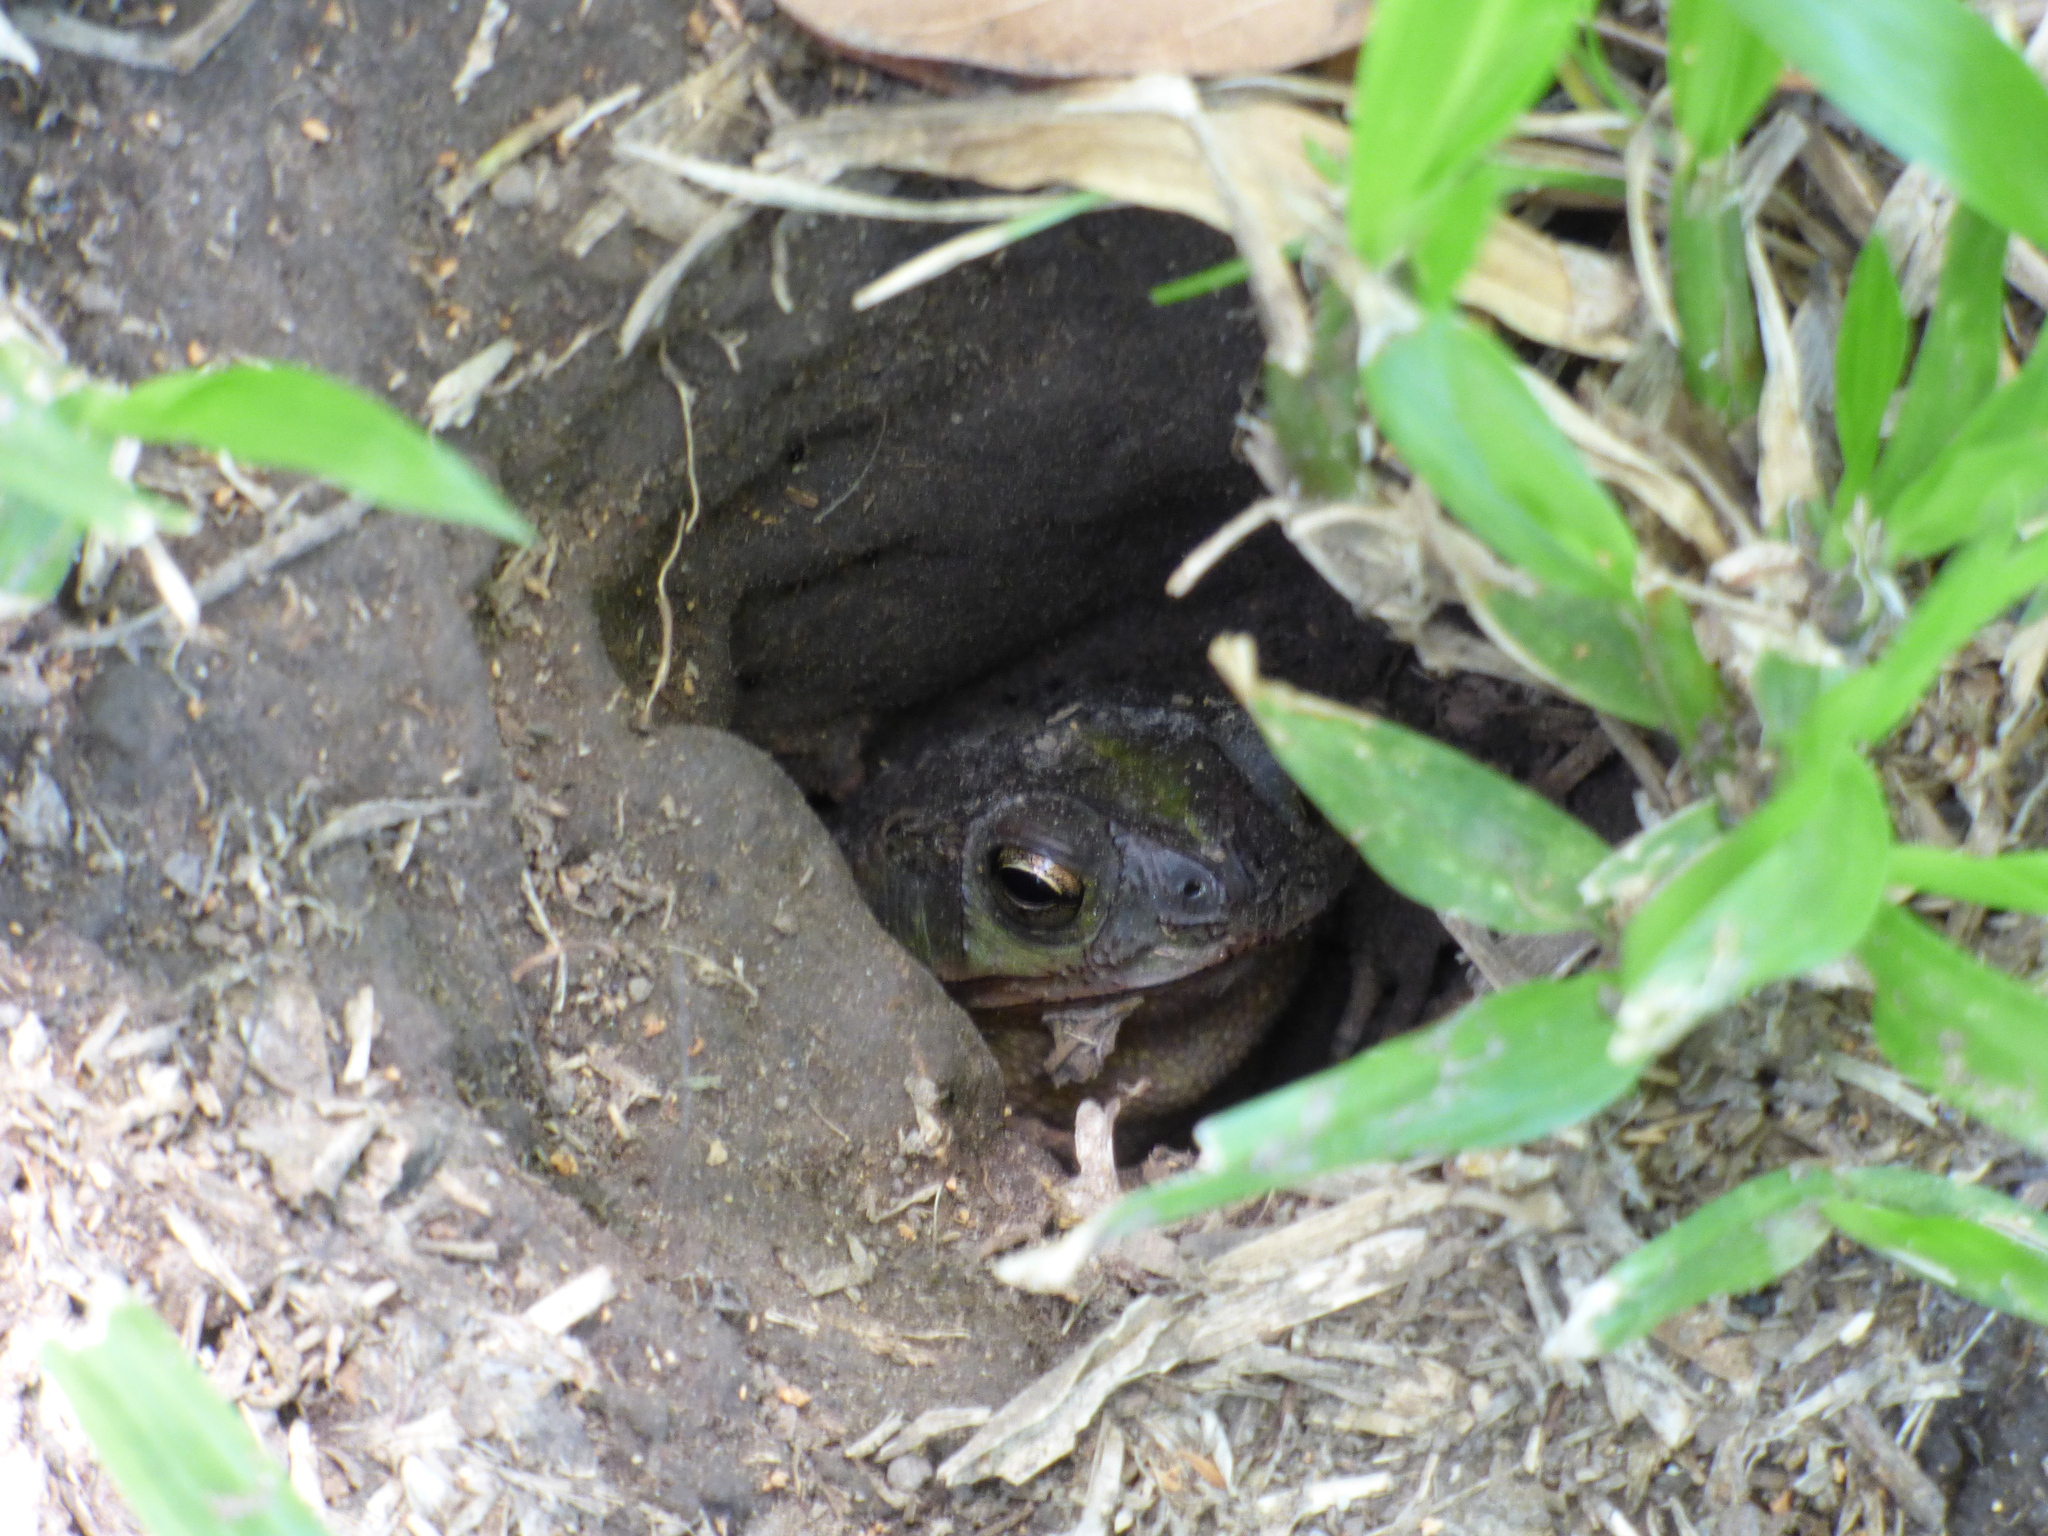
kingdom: Animalia
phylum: Chordata
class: Amphibia
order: Anura
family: Bufonidae
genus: Rhinella
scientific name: Rhinella dorbignyi
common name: D´orbigny’s toad
